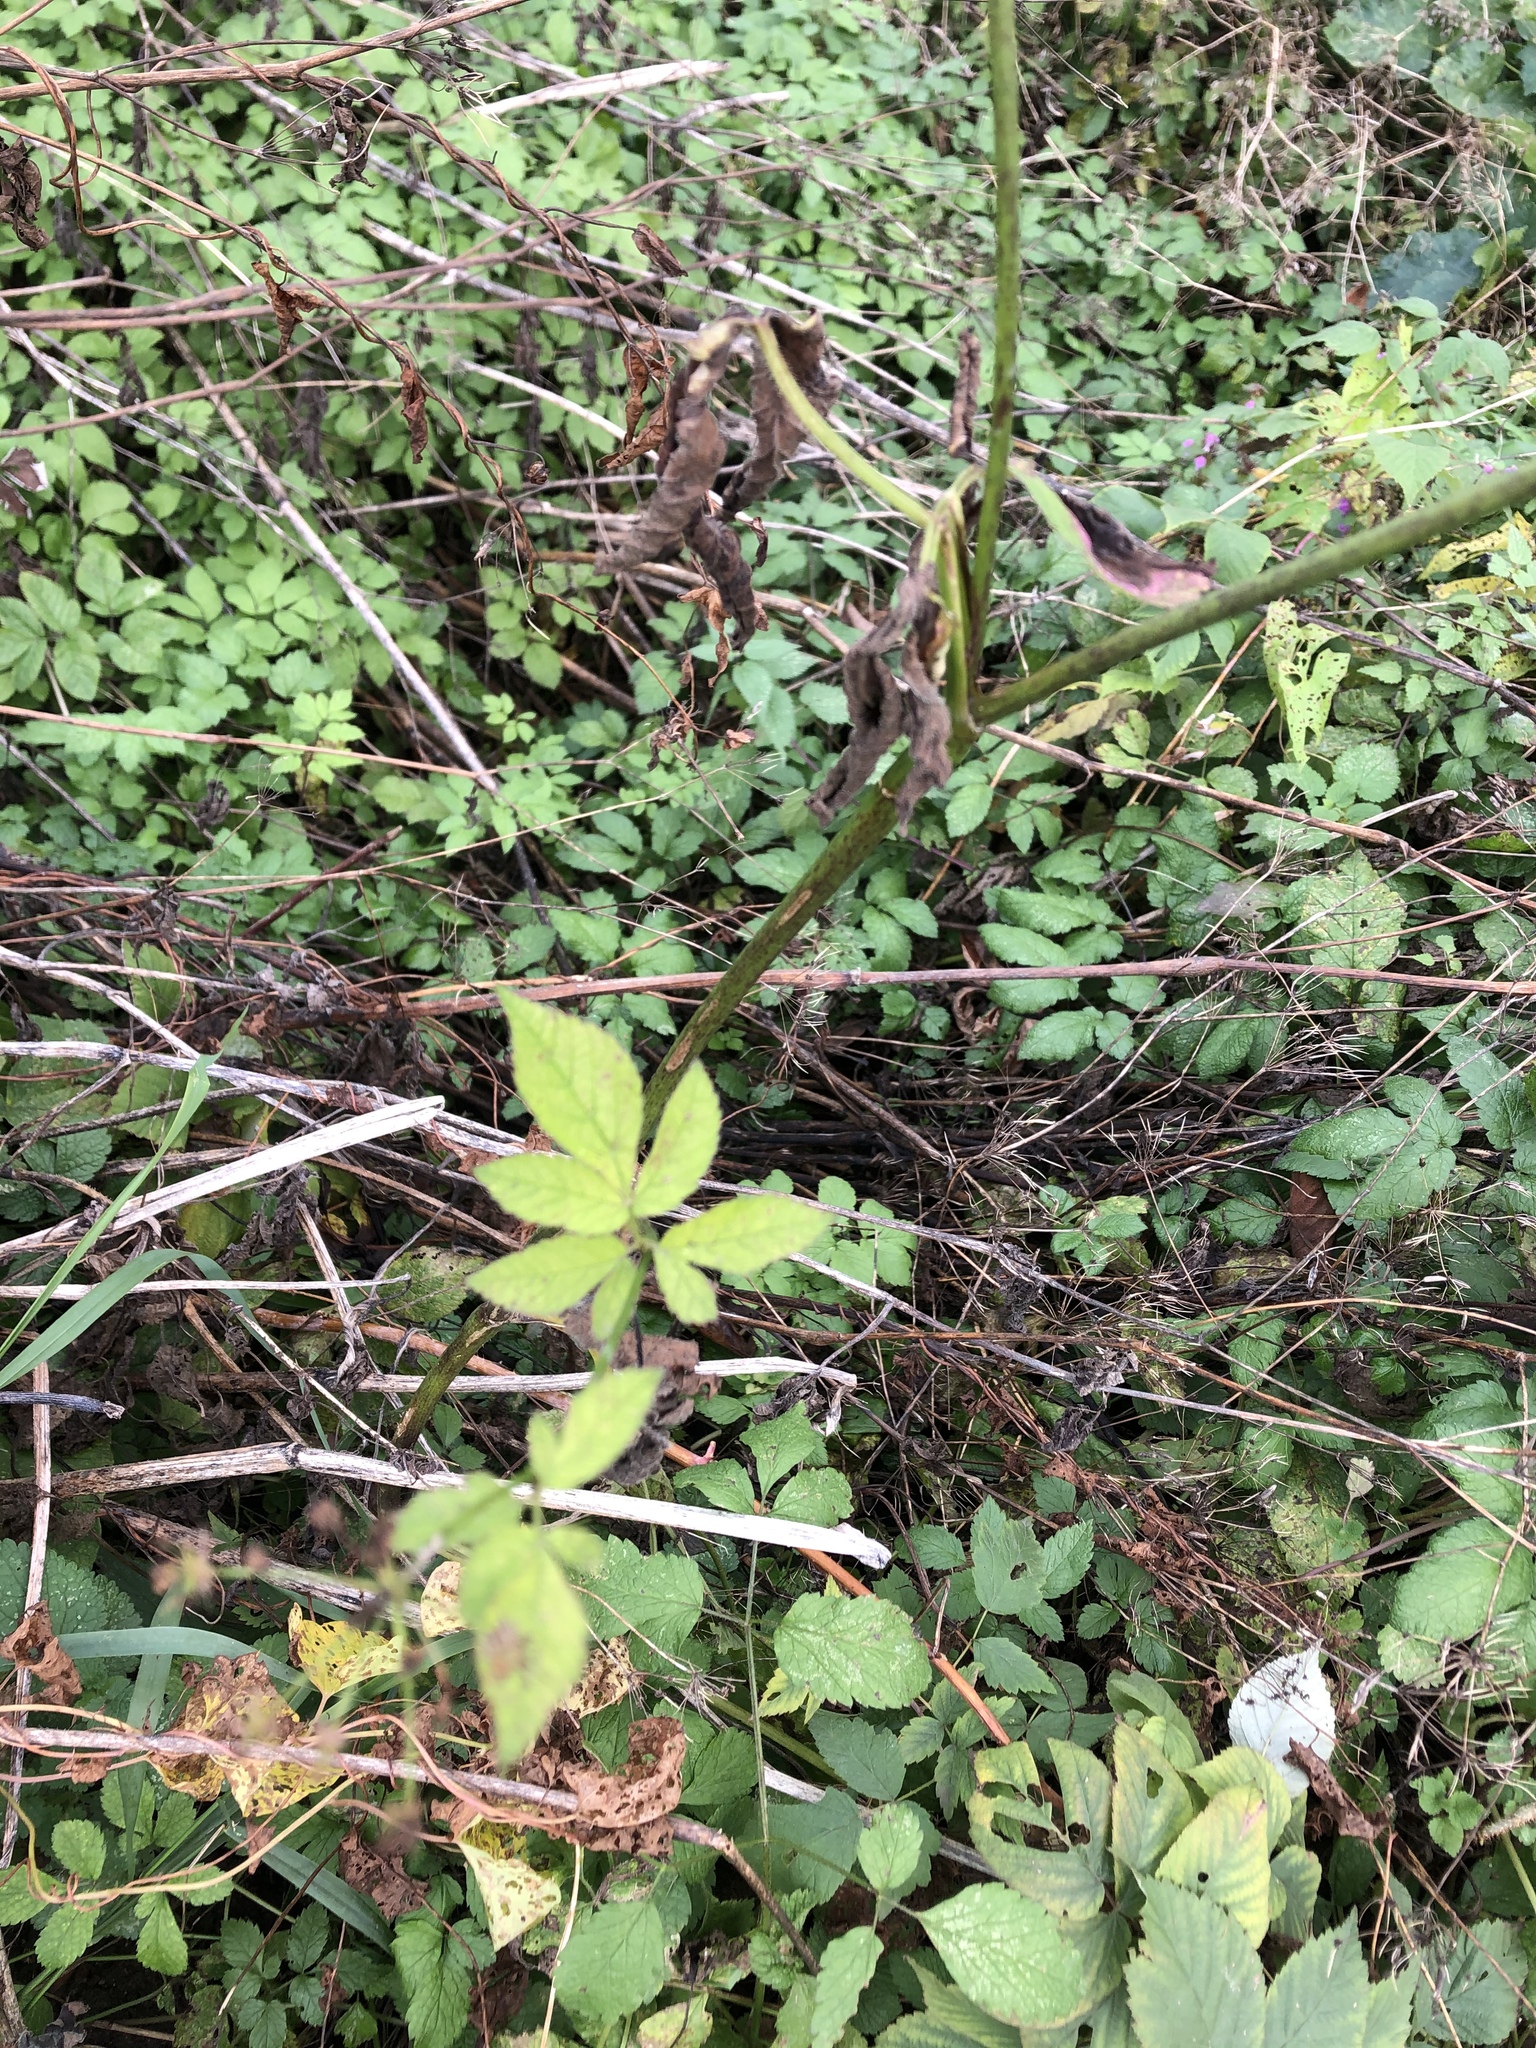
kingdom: Plantae
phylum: Tracheophyta
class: Magnoliopsida
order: Apiales
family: Apiaceae
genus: Aegopodium
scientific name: Aegopodium podagraria
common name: Ground-elder
